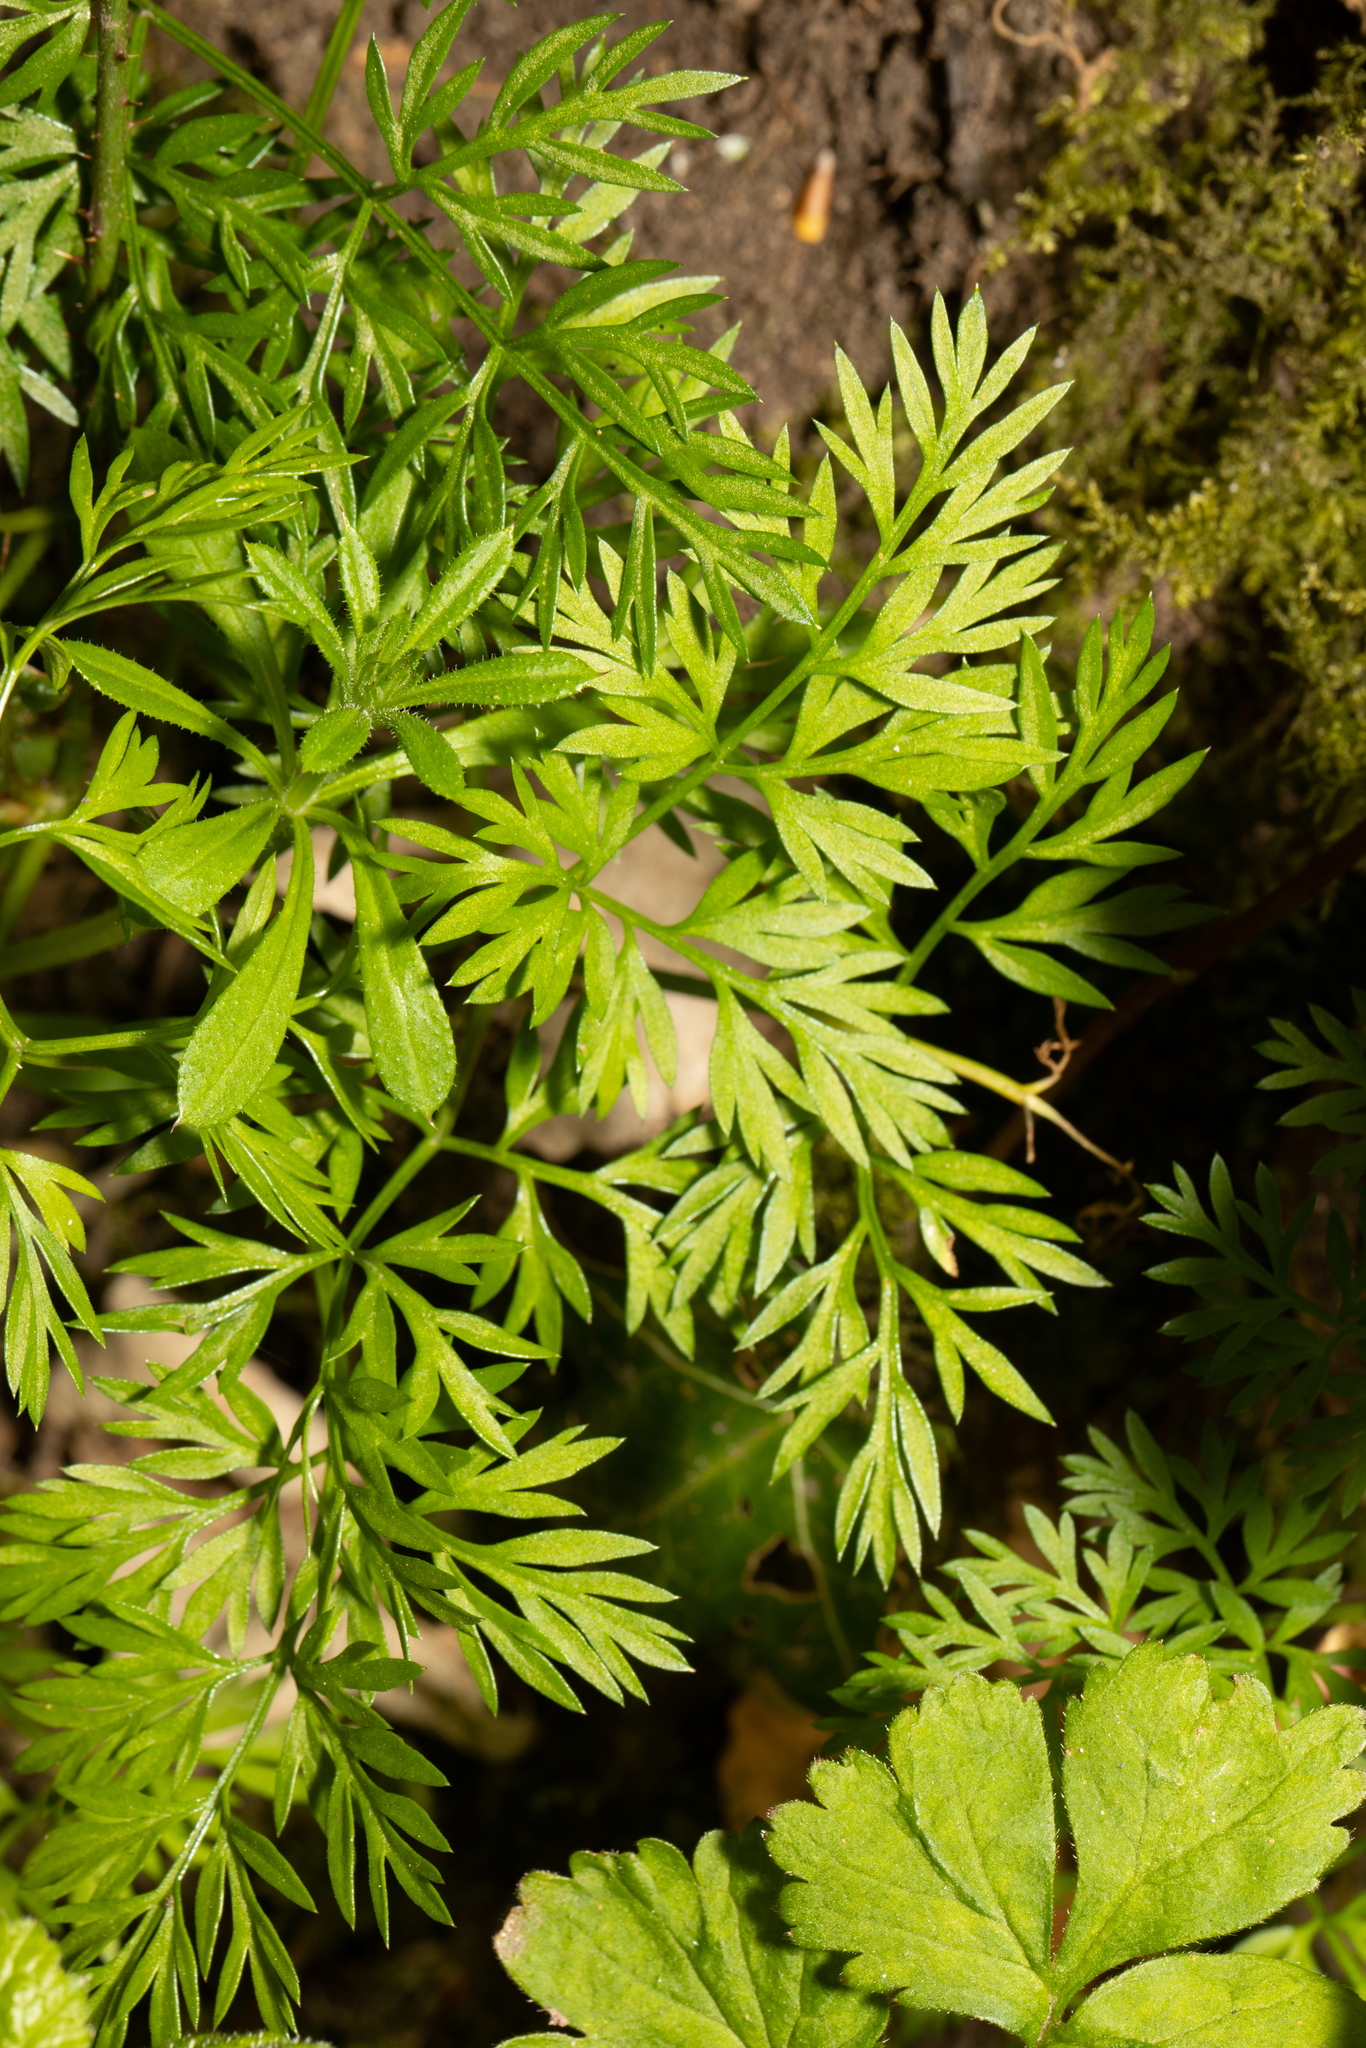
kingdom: Plantae
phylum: Tracheophyta
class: Magnoliopsida
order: Apiales
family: Apiaceae
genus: Conopodium
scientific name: Conopodium majus
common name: Pignut
